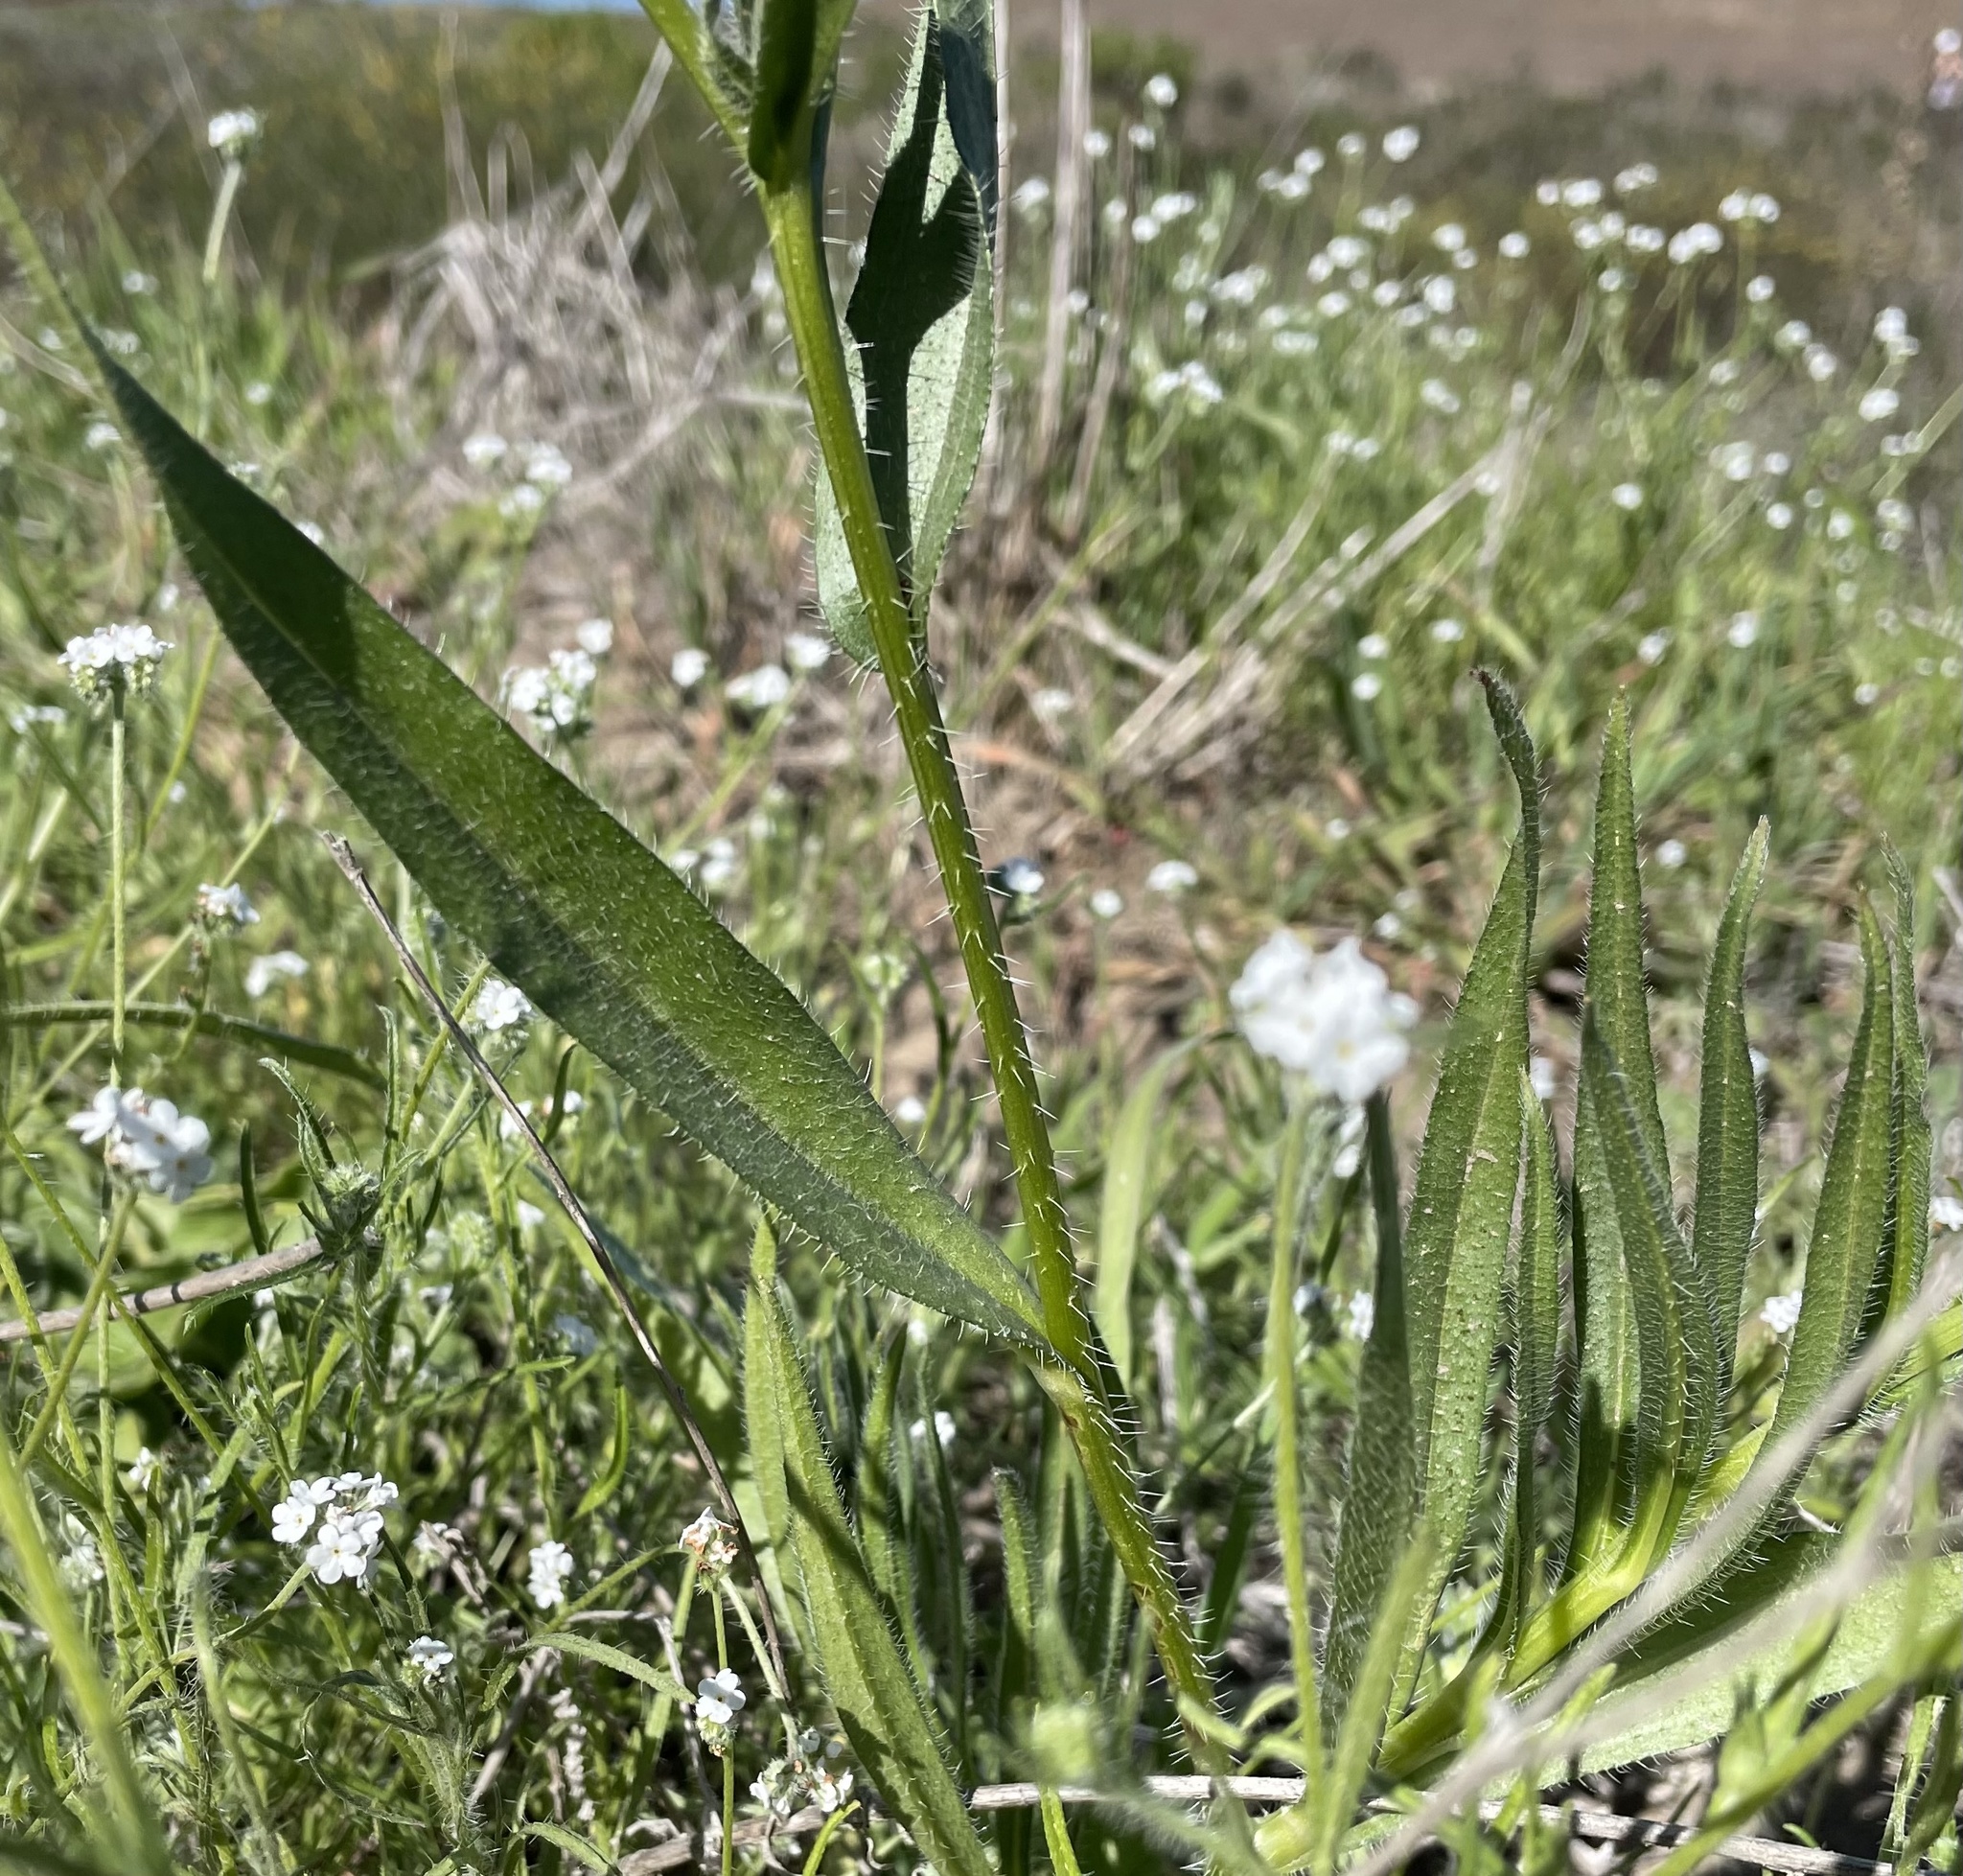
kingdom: Plantae
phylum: Tracheophyta
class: Magnoliopsida
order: Boraginales
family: Boraginaceae
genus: Amsinckia
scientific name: Amsinckia menziesii
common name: Menzies' fiddleneck
